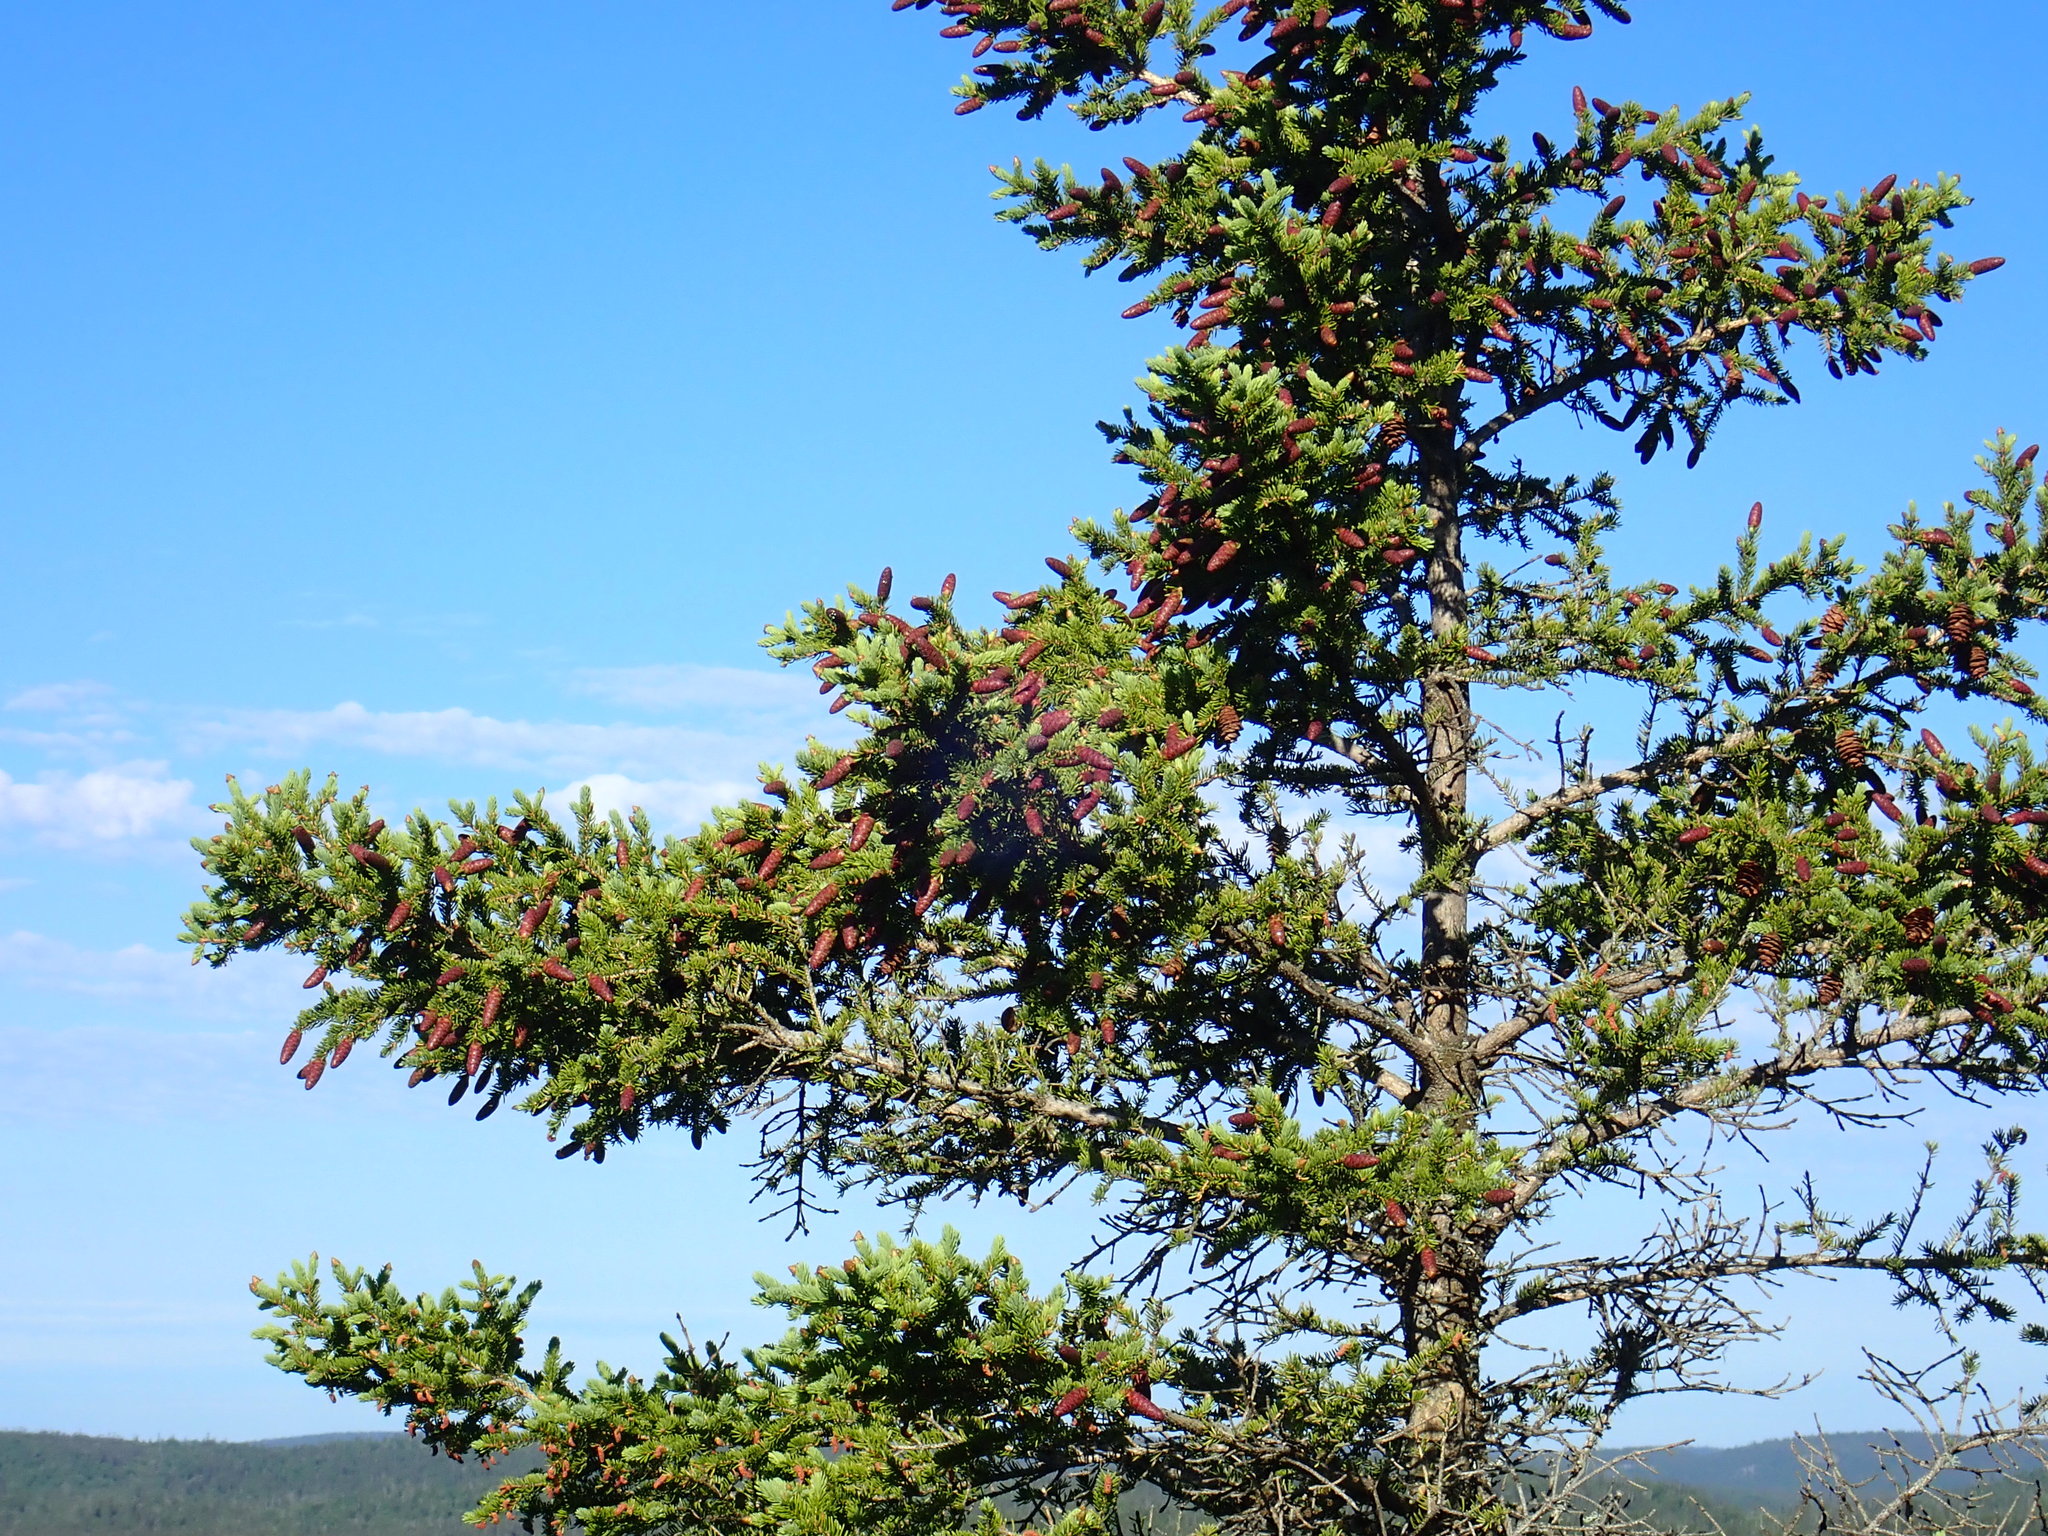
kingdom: Plantae
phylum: Tracheophyta
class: Pinopsida
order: Pinales
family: Pinaceae
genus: Picea
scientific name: Picea glauca
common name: White spruce
